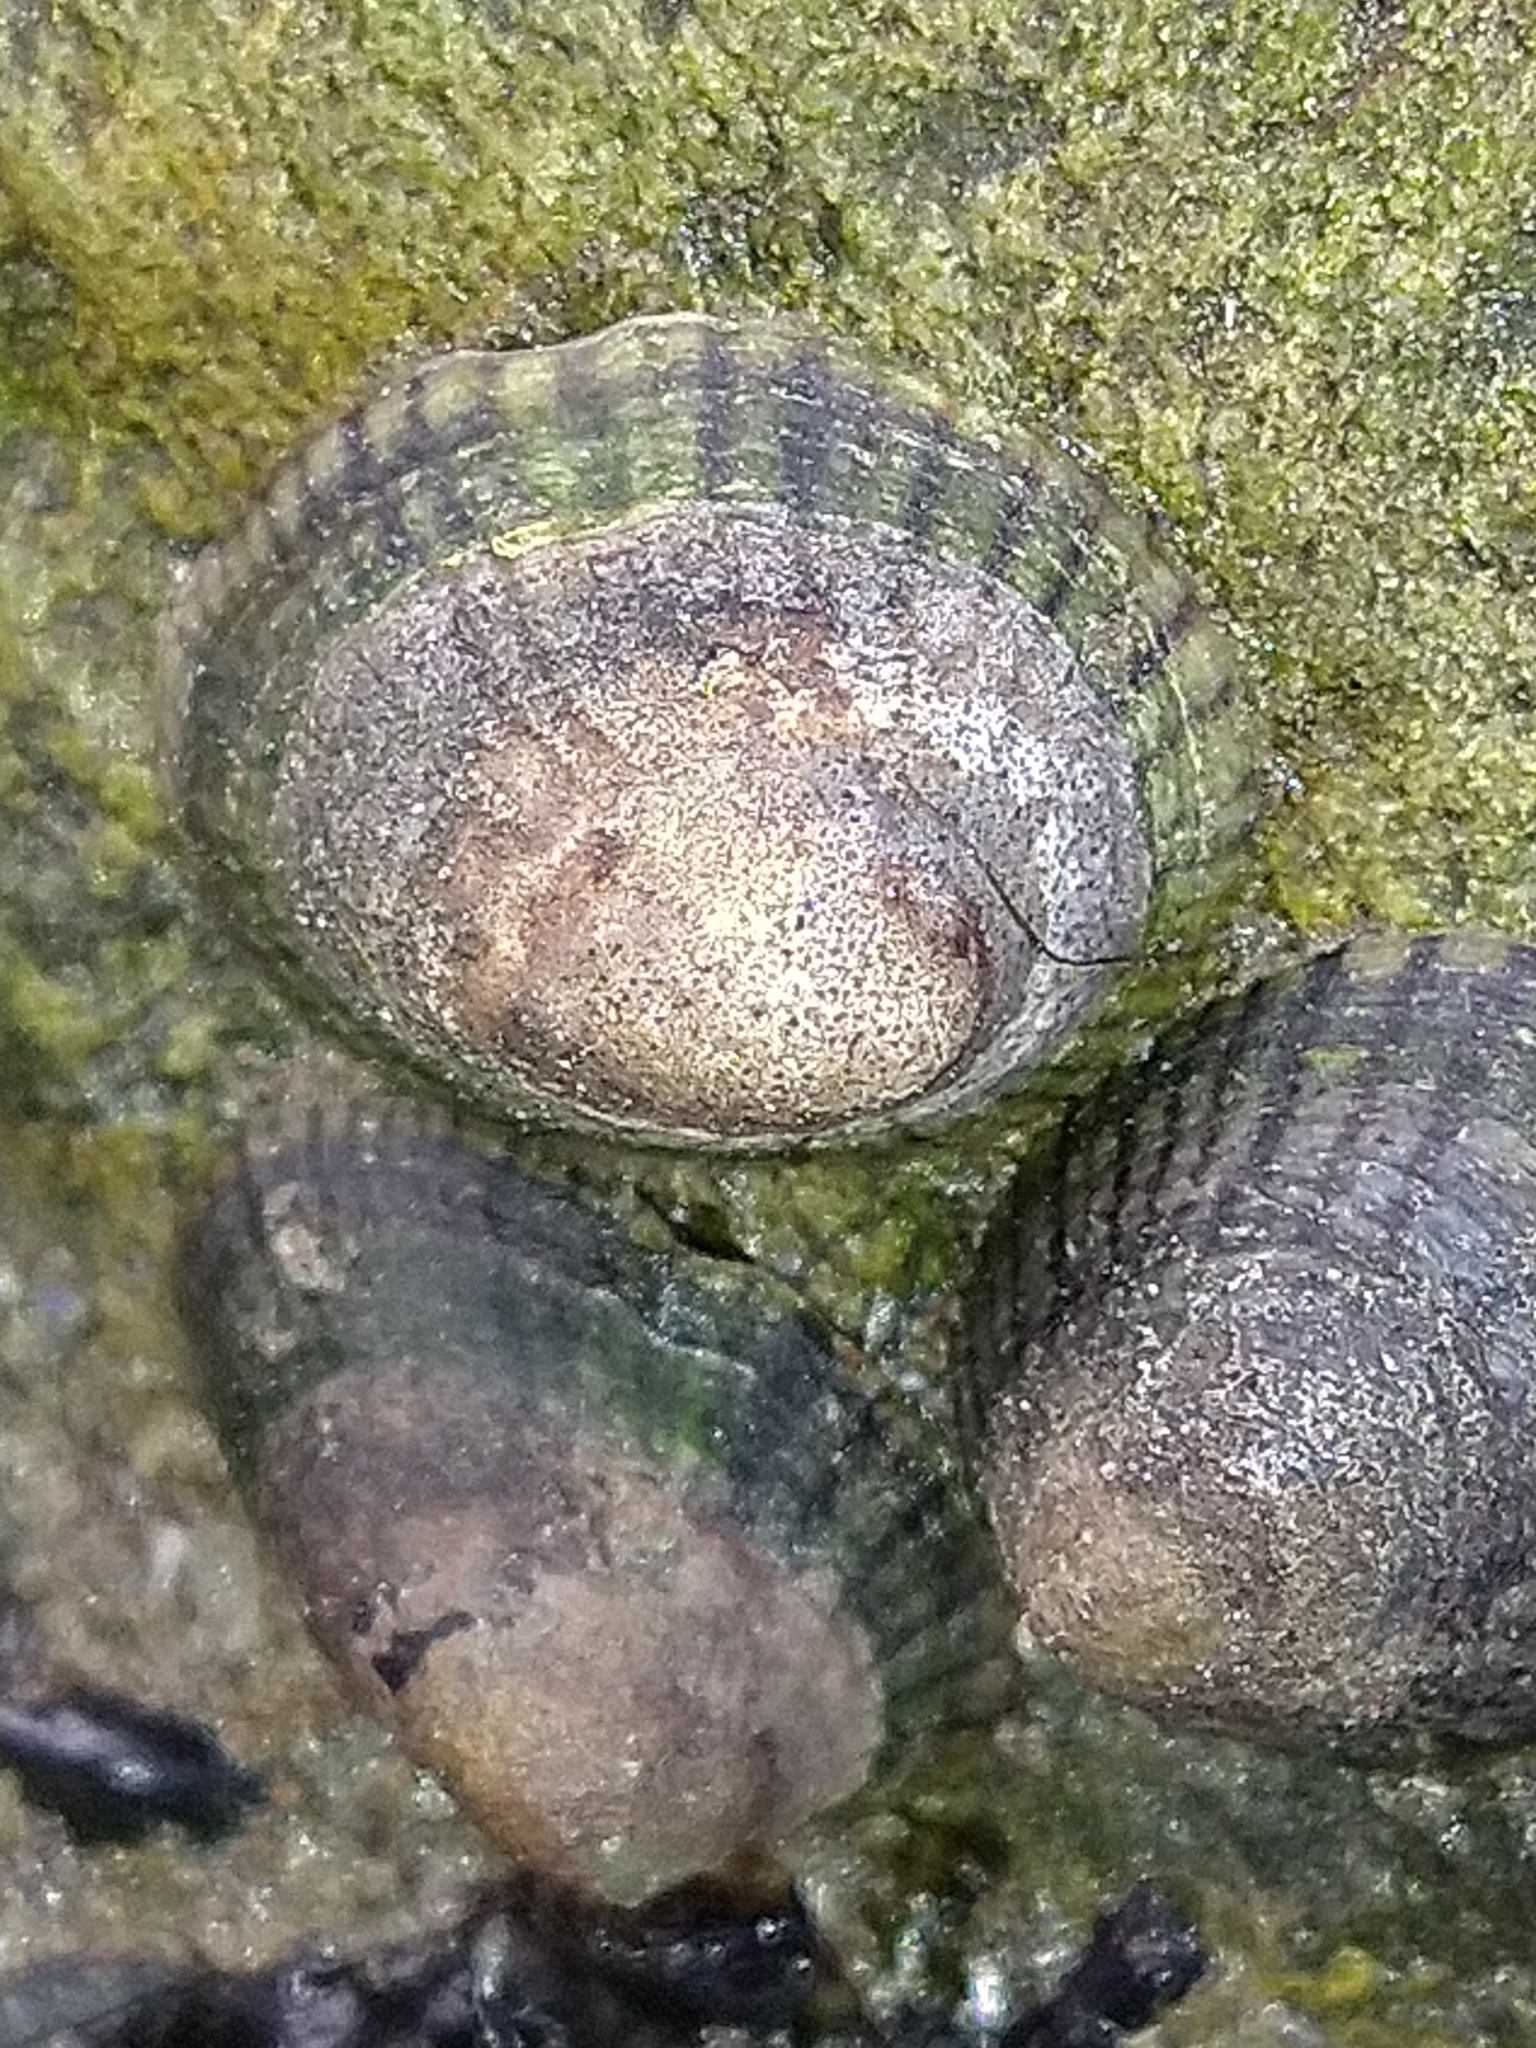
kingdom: Animalia
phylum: Mollusca
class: Gastropoda
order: Siphonariida
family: Siphonariidae
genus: Siphonaria
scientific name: Siphonaria lessonii
